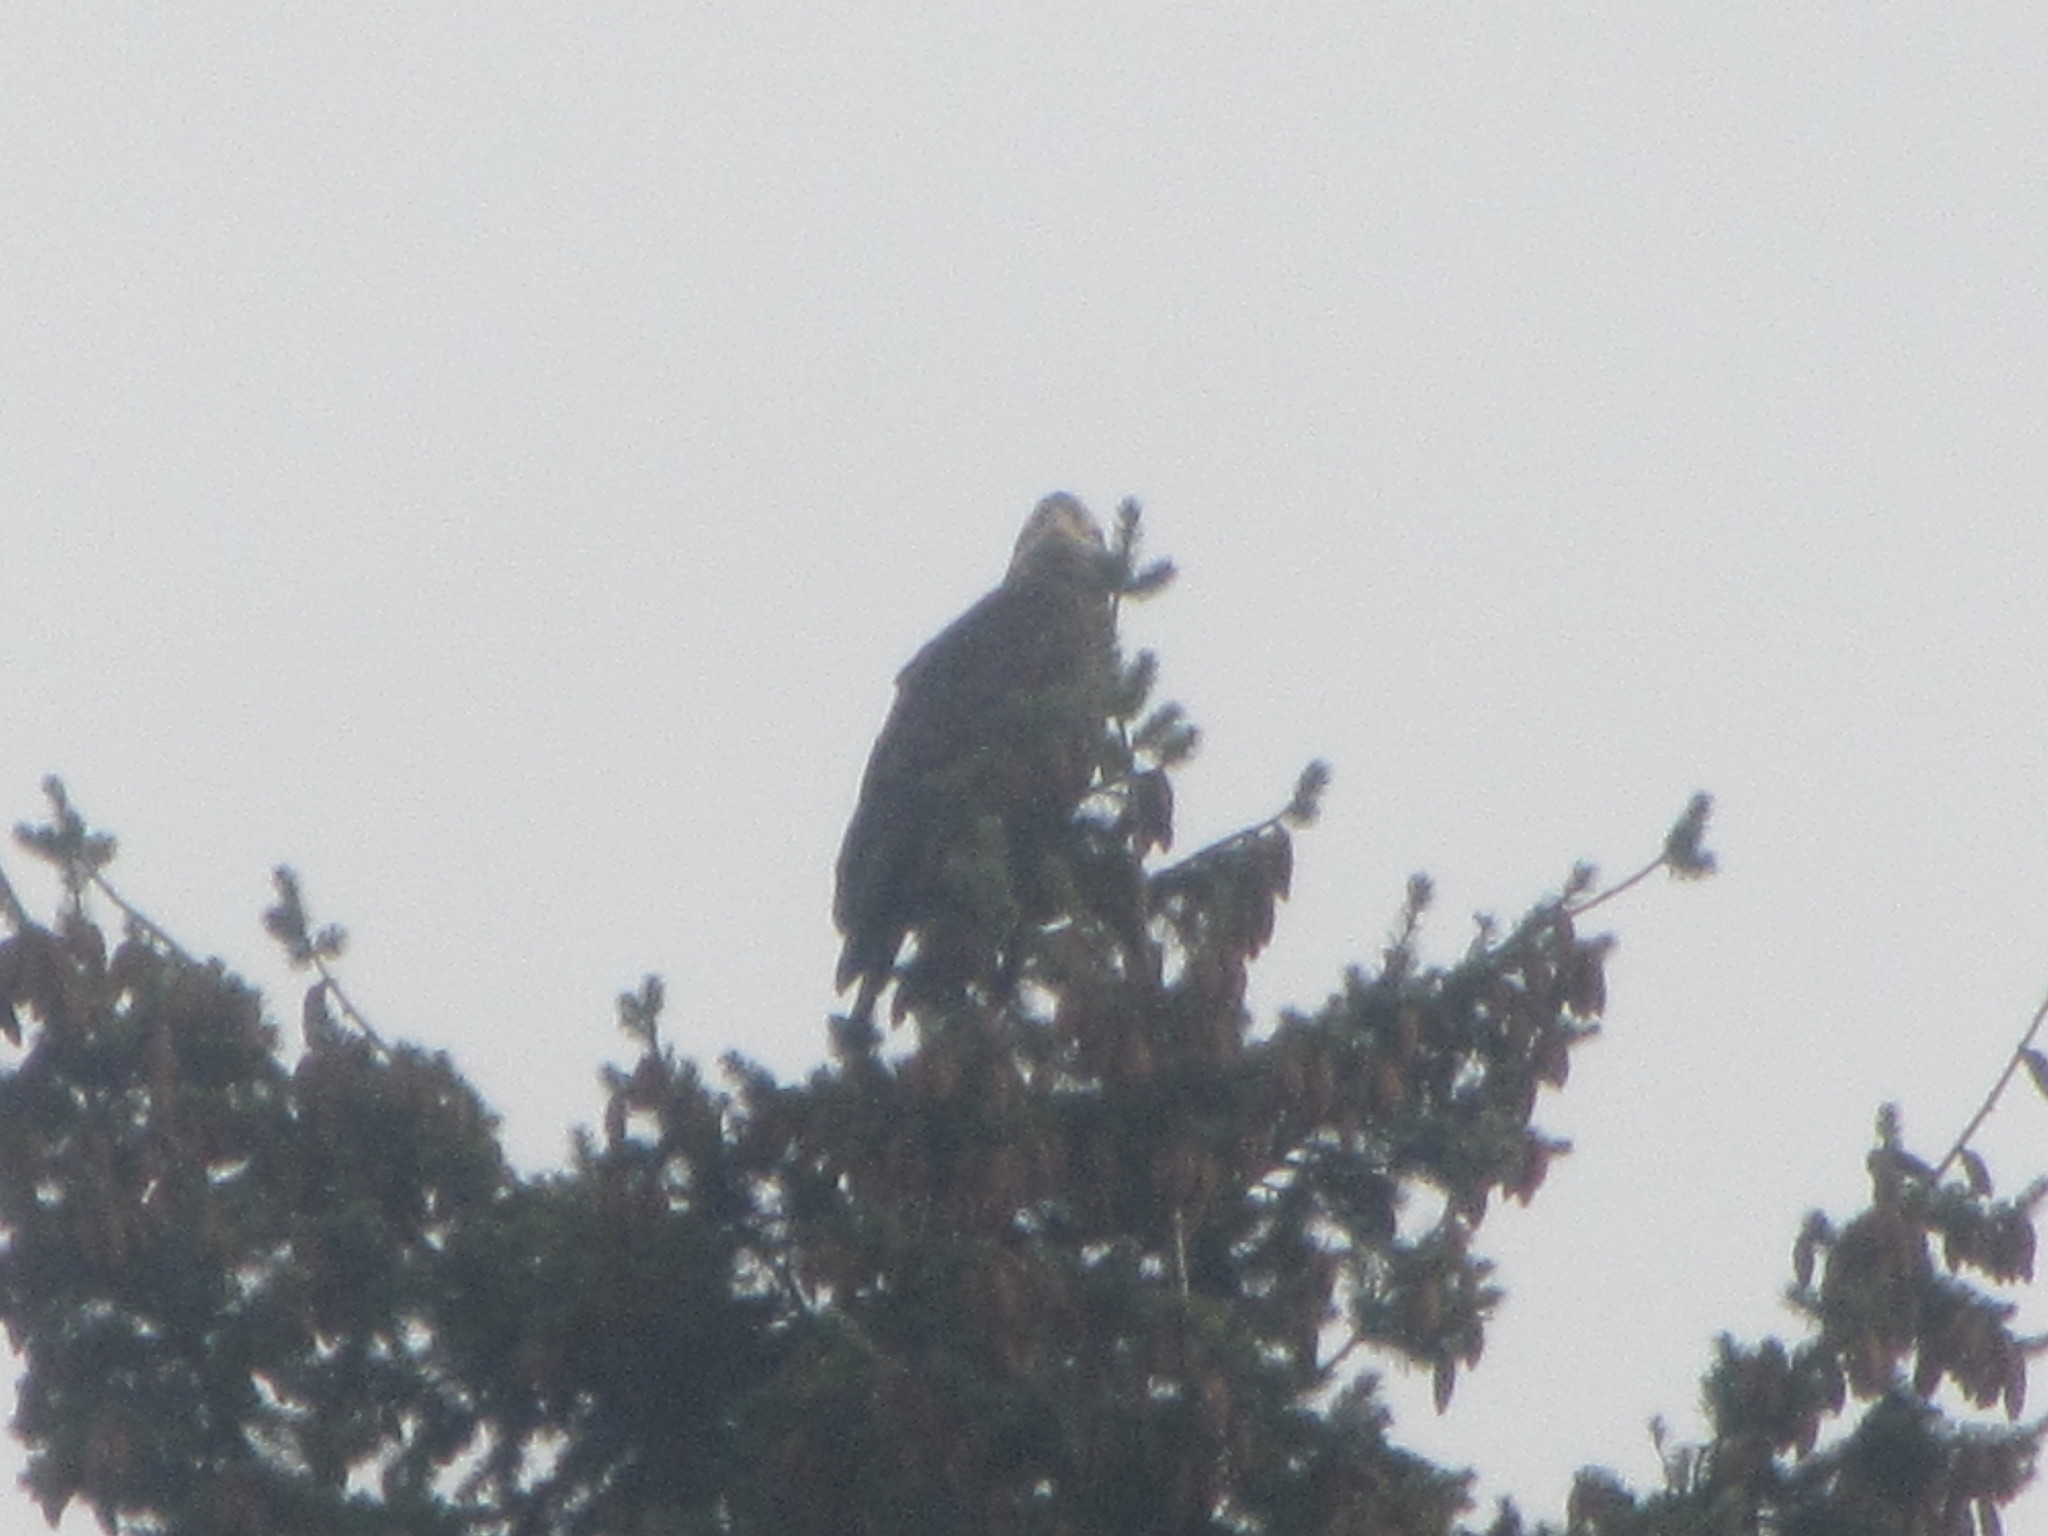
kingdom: Animalia
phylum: Chordata
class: Aves
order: Accipitriformes
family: Accipitridae
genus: Haliaeetus
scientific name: Haliaeetus leucocephalus
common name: Bald eagle
